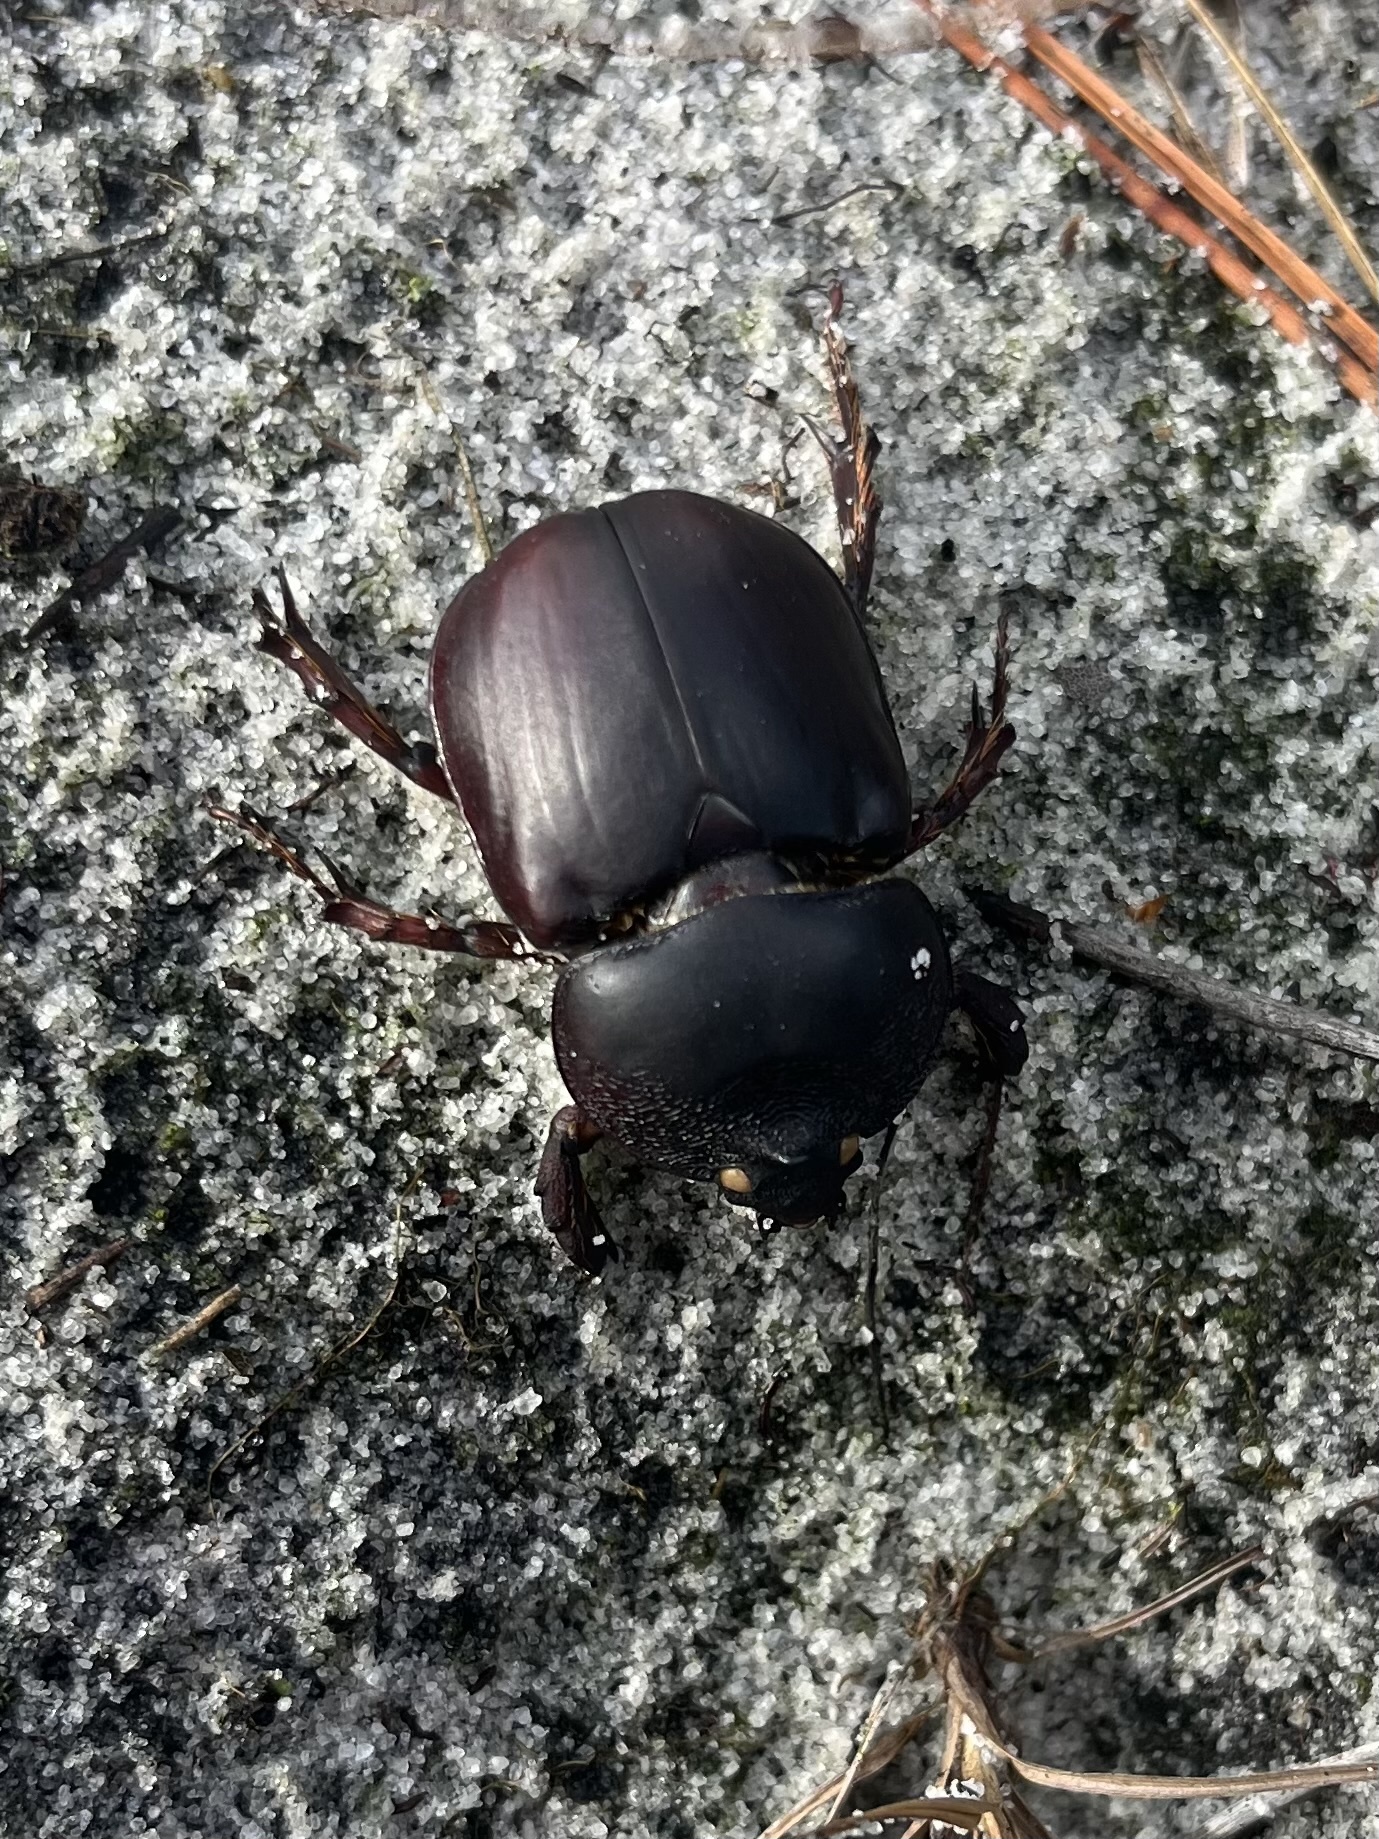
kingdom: Animalia
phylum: Arthropoda
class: Insecta
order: Coleoptera
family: Scarabaeidae
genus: Strategus
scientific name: Strategus antaeus
